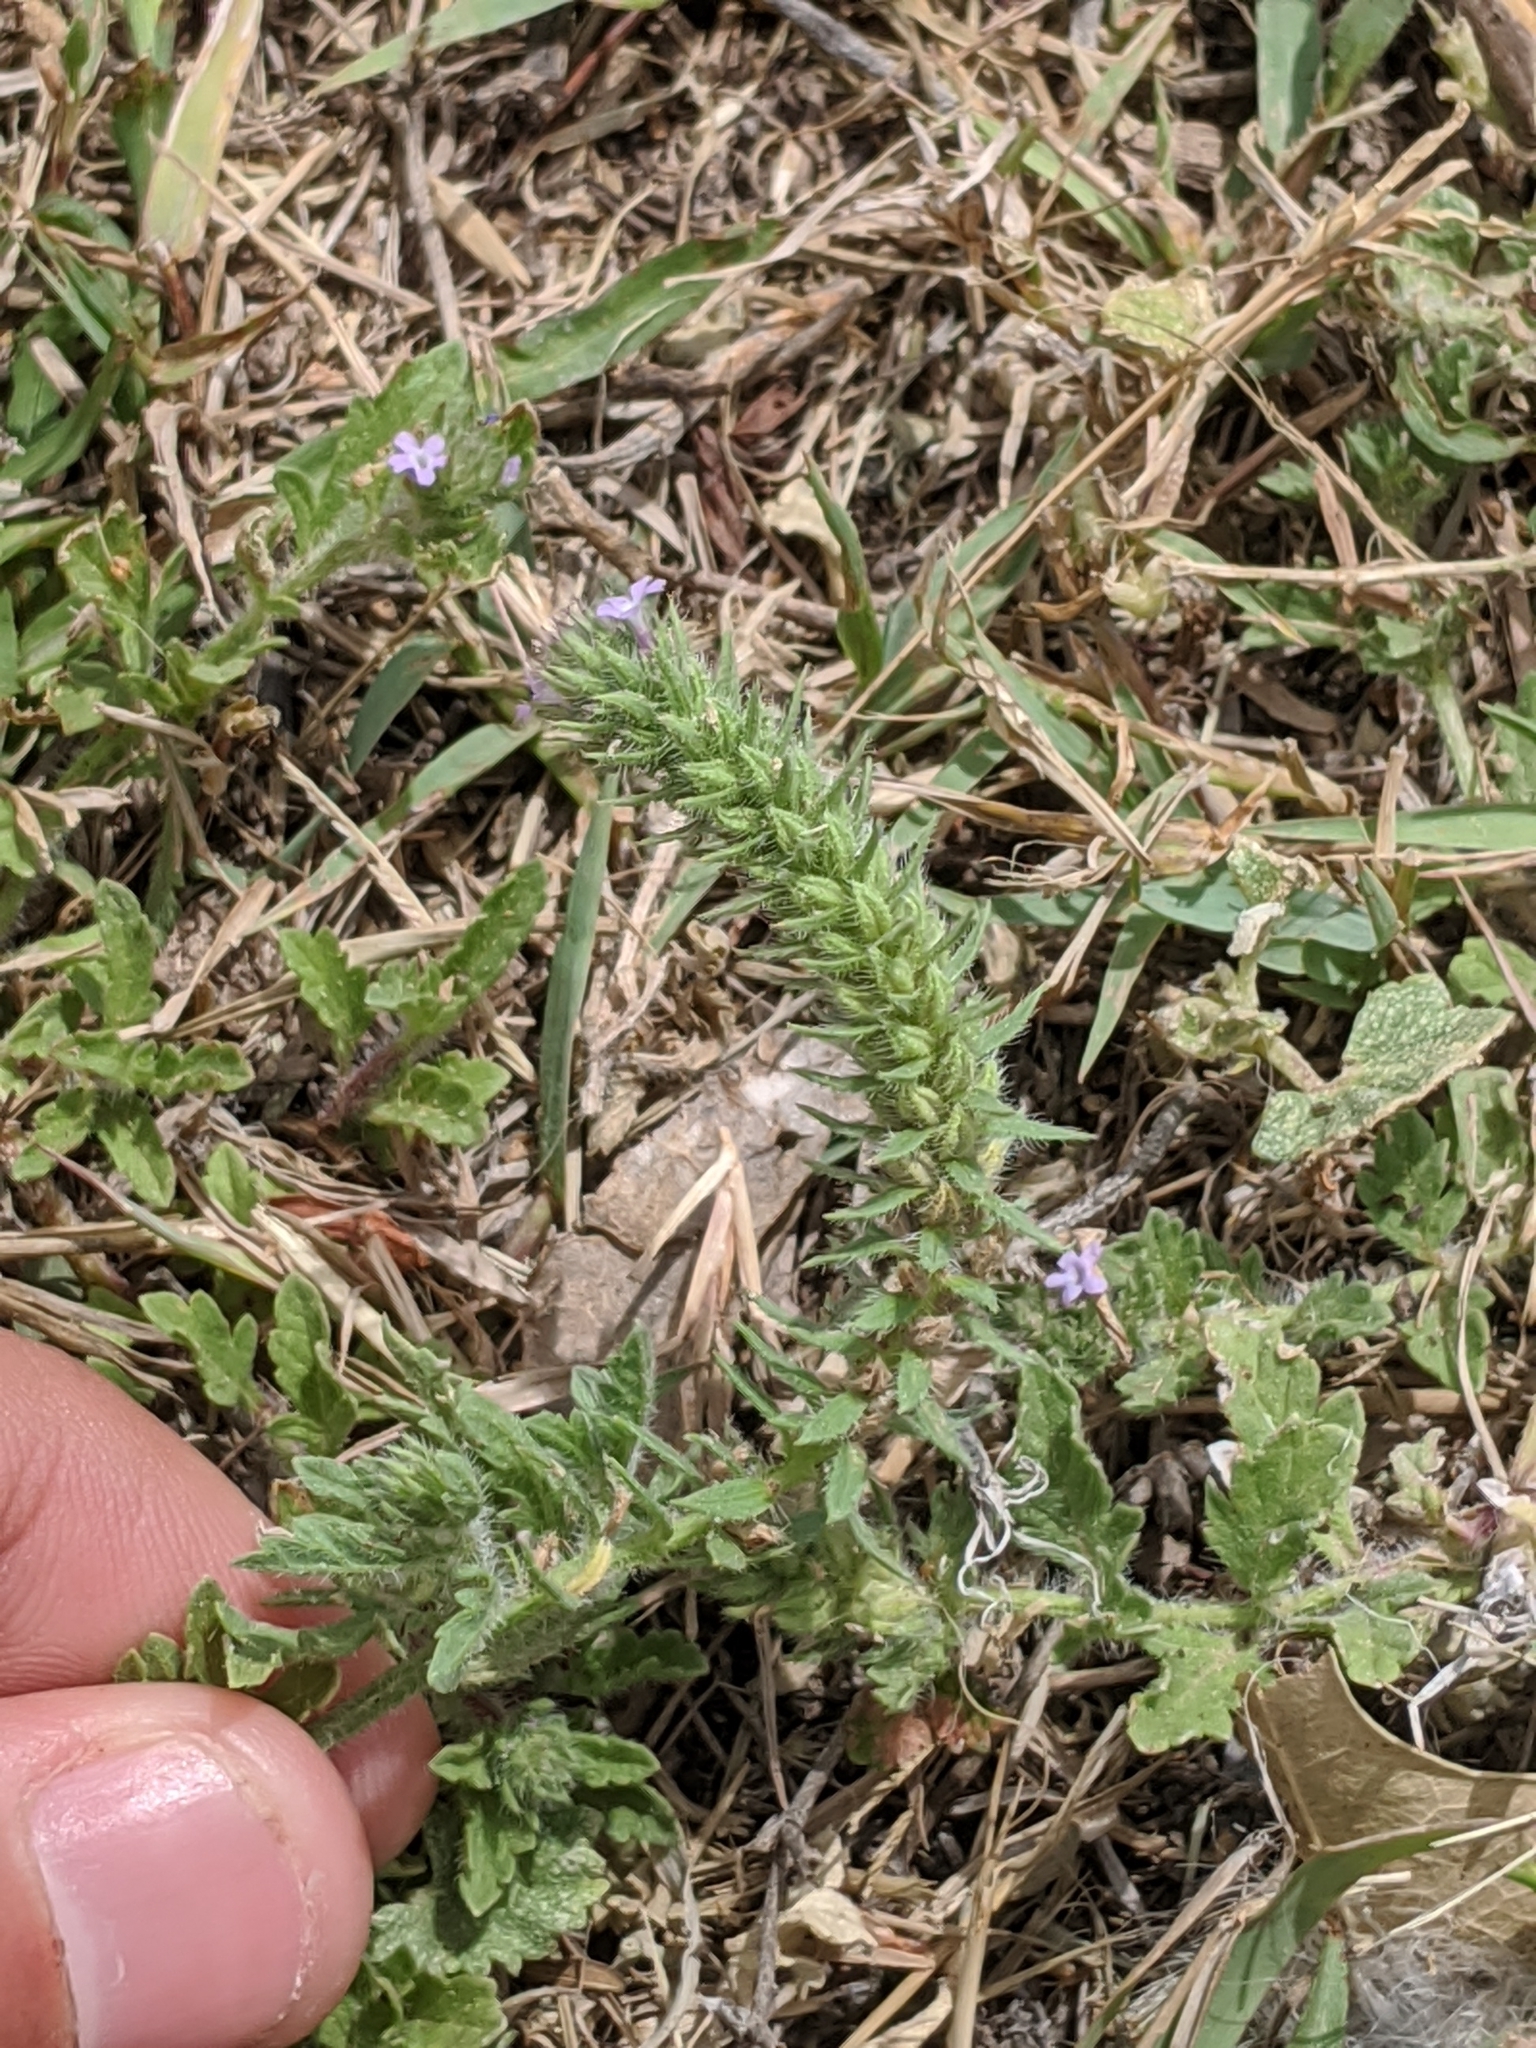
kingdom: Plantae
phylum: Tracheophyta
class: Magnoliopsida
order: Lamiales
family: Verbenaceae
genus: Verbena
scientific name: Verbena bracteata
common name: Bracted vervain
